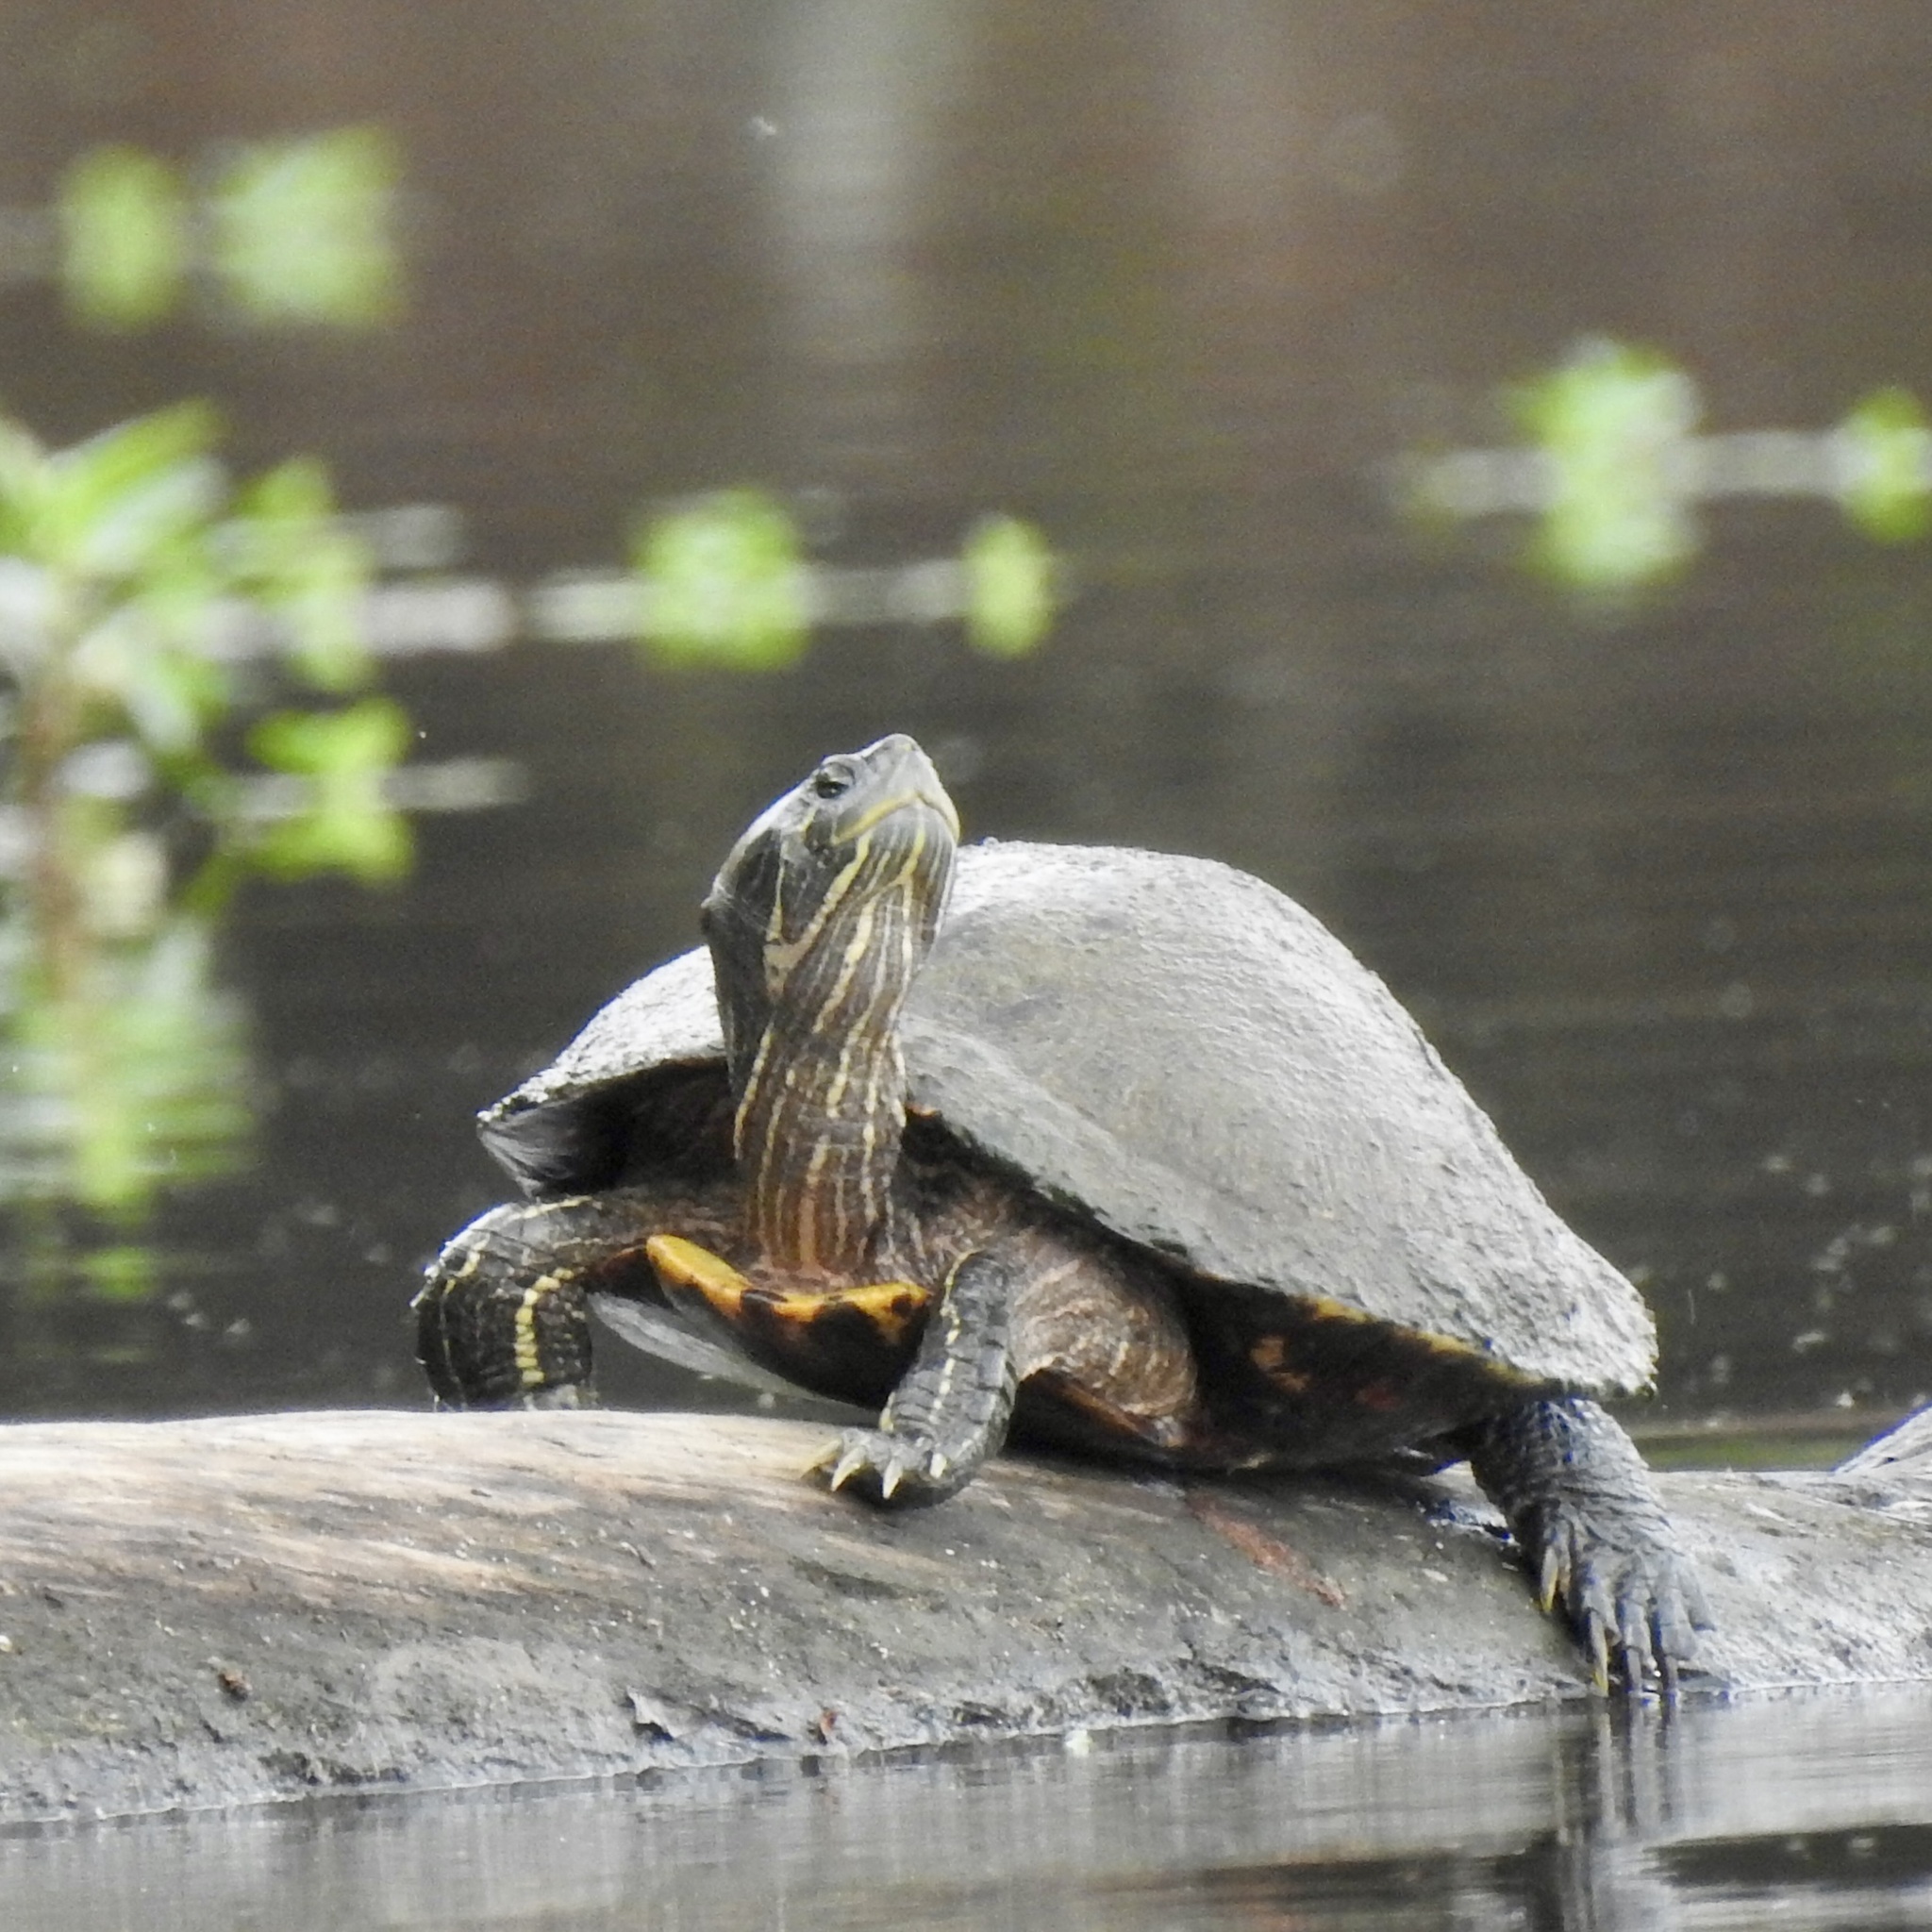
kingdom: Animalia
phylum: Chordata
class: Testudines
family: Emydidae
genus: Trachemys
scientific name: Trachemys scripta
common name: Slider
